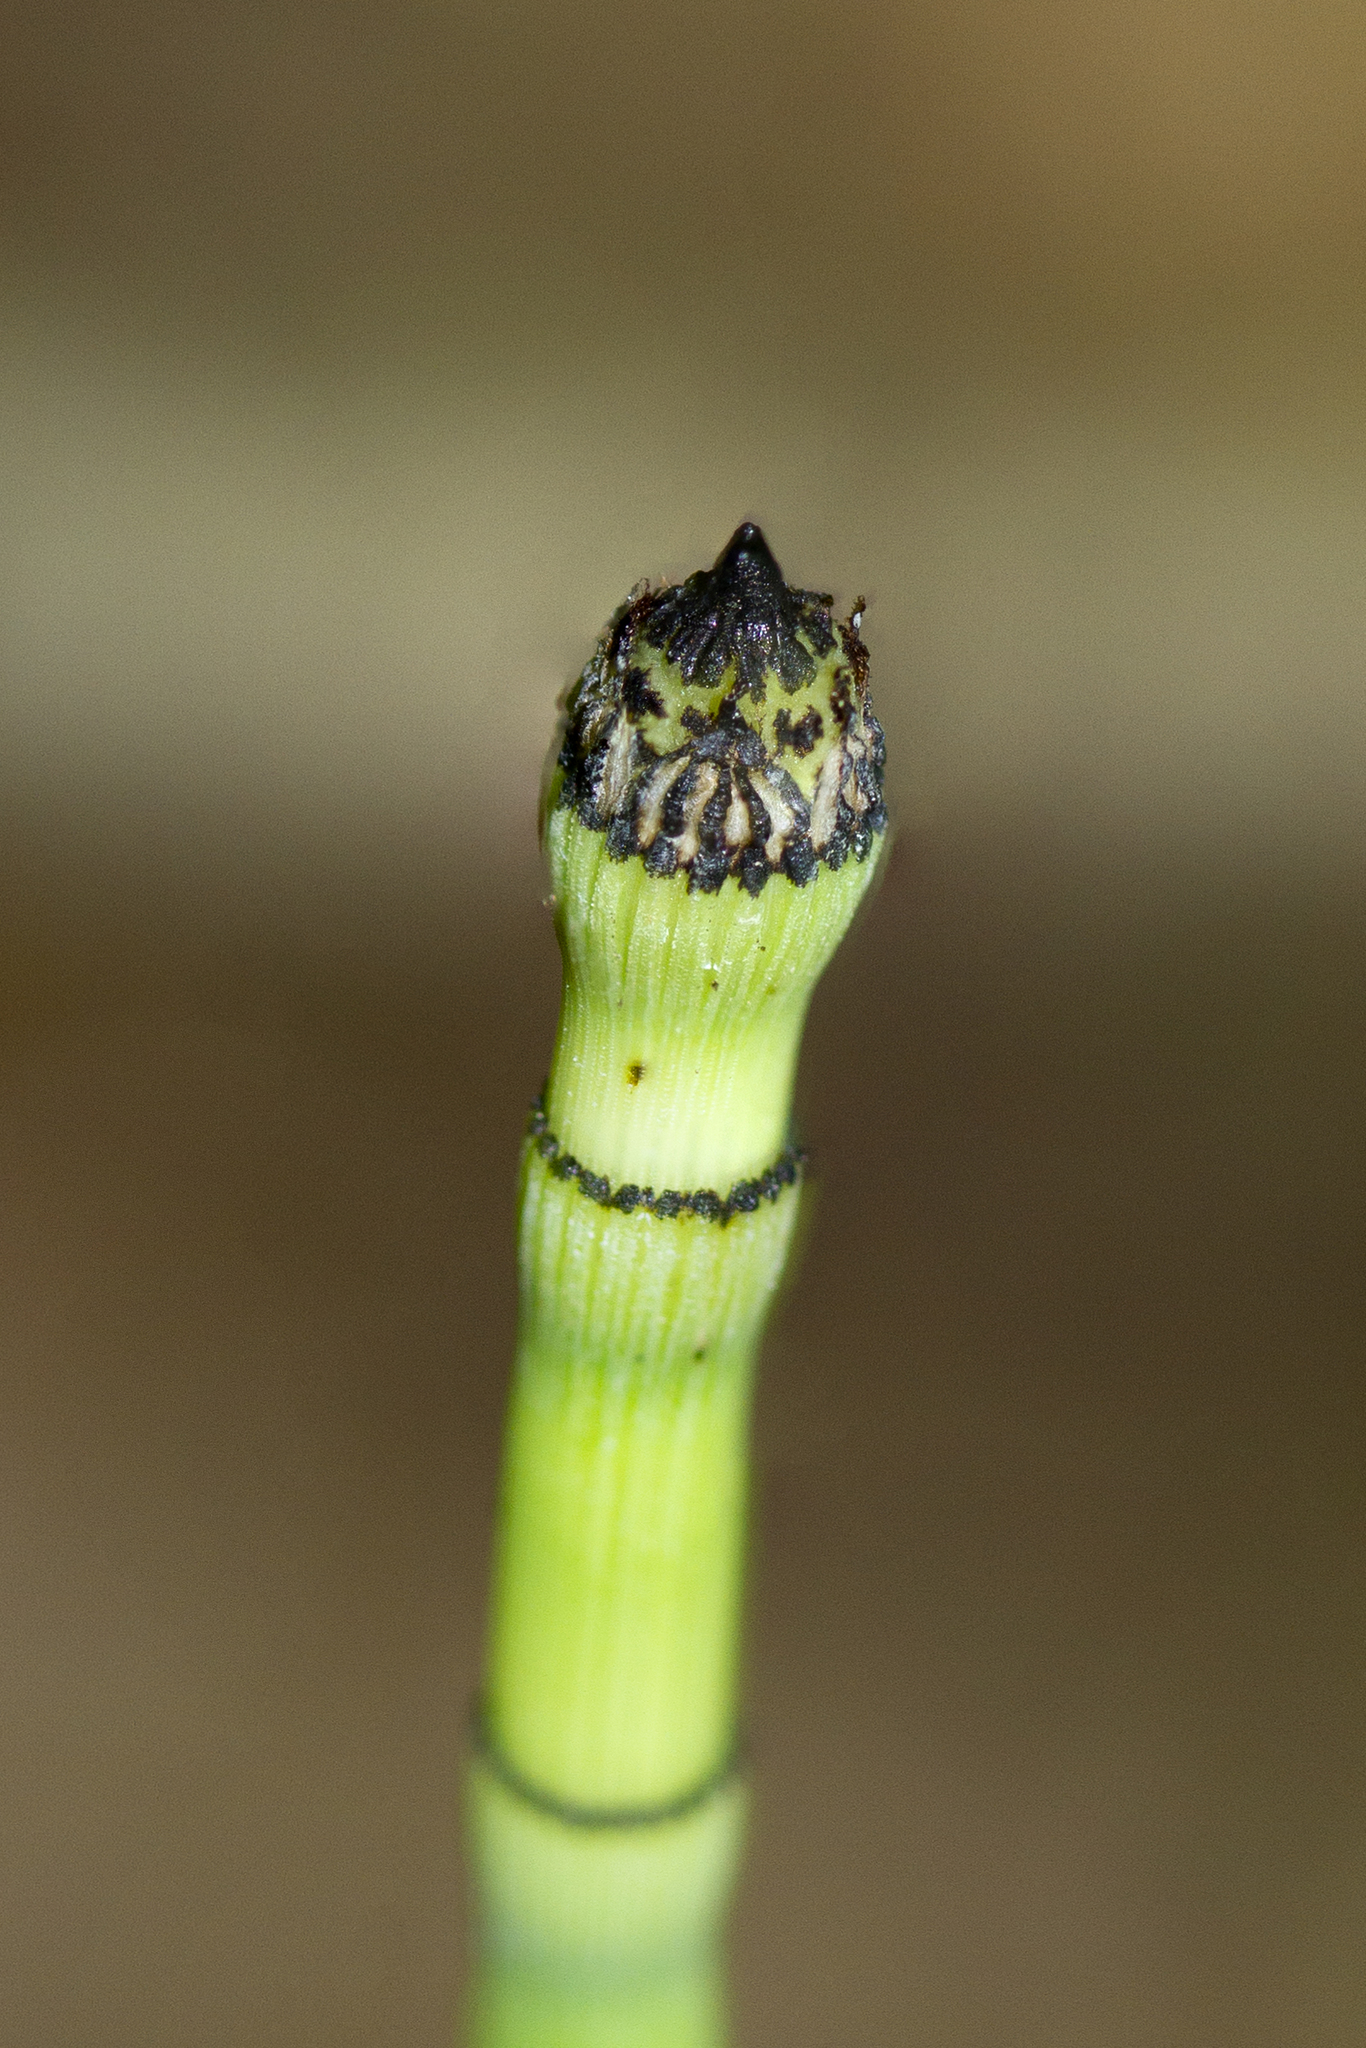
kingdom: Plantae
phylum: Tracheophyta
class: Polypodiopsida
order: Equisetales
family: Equisetaceae
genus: Equisetum
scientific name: Equisetum praealtum
